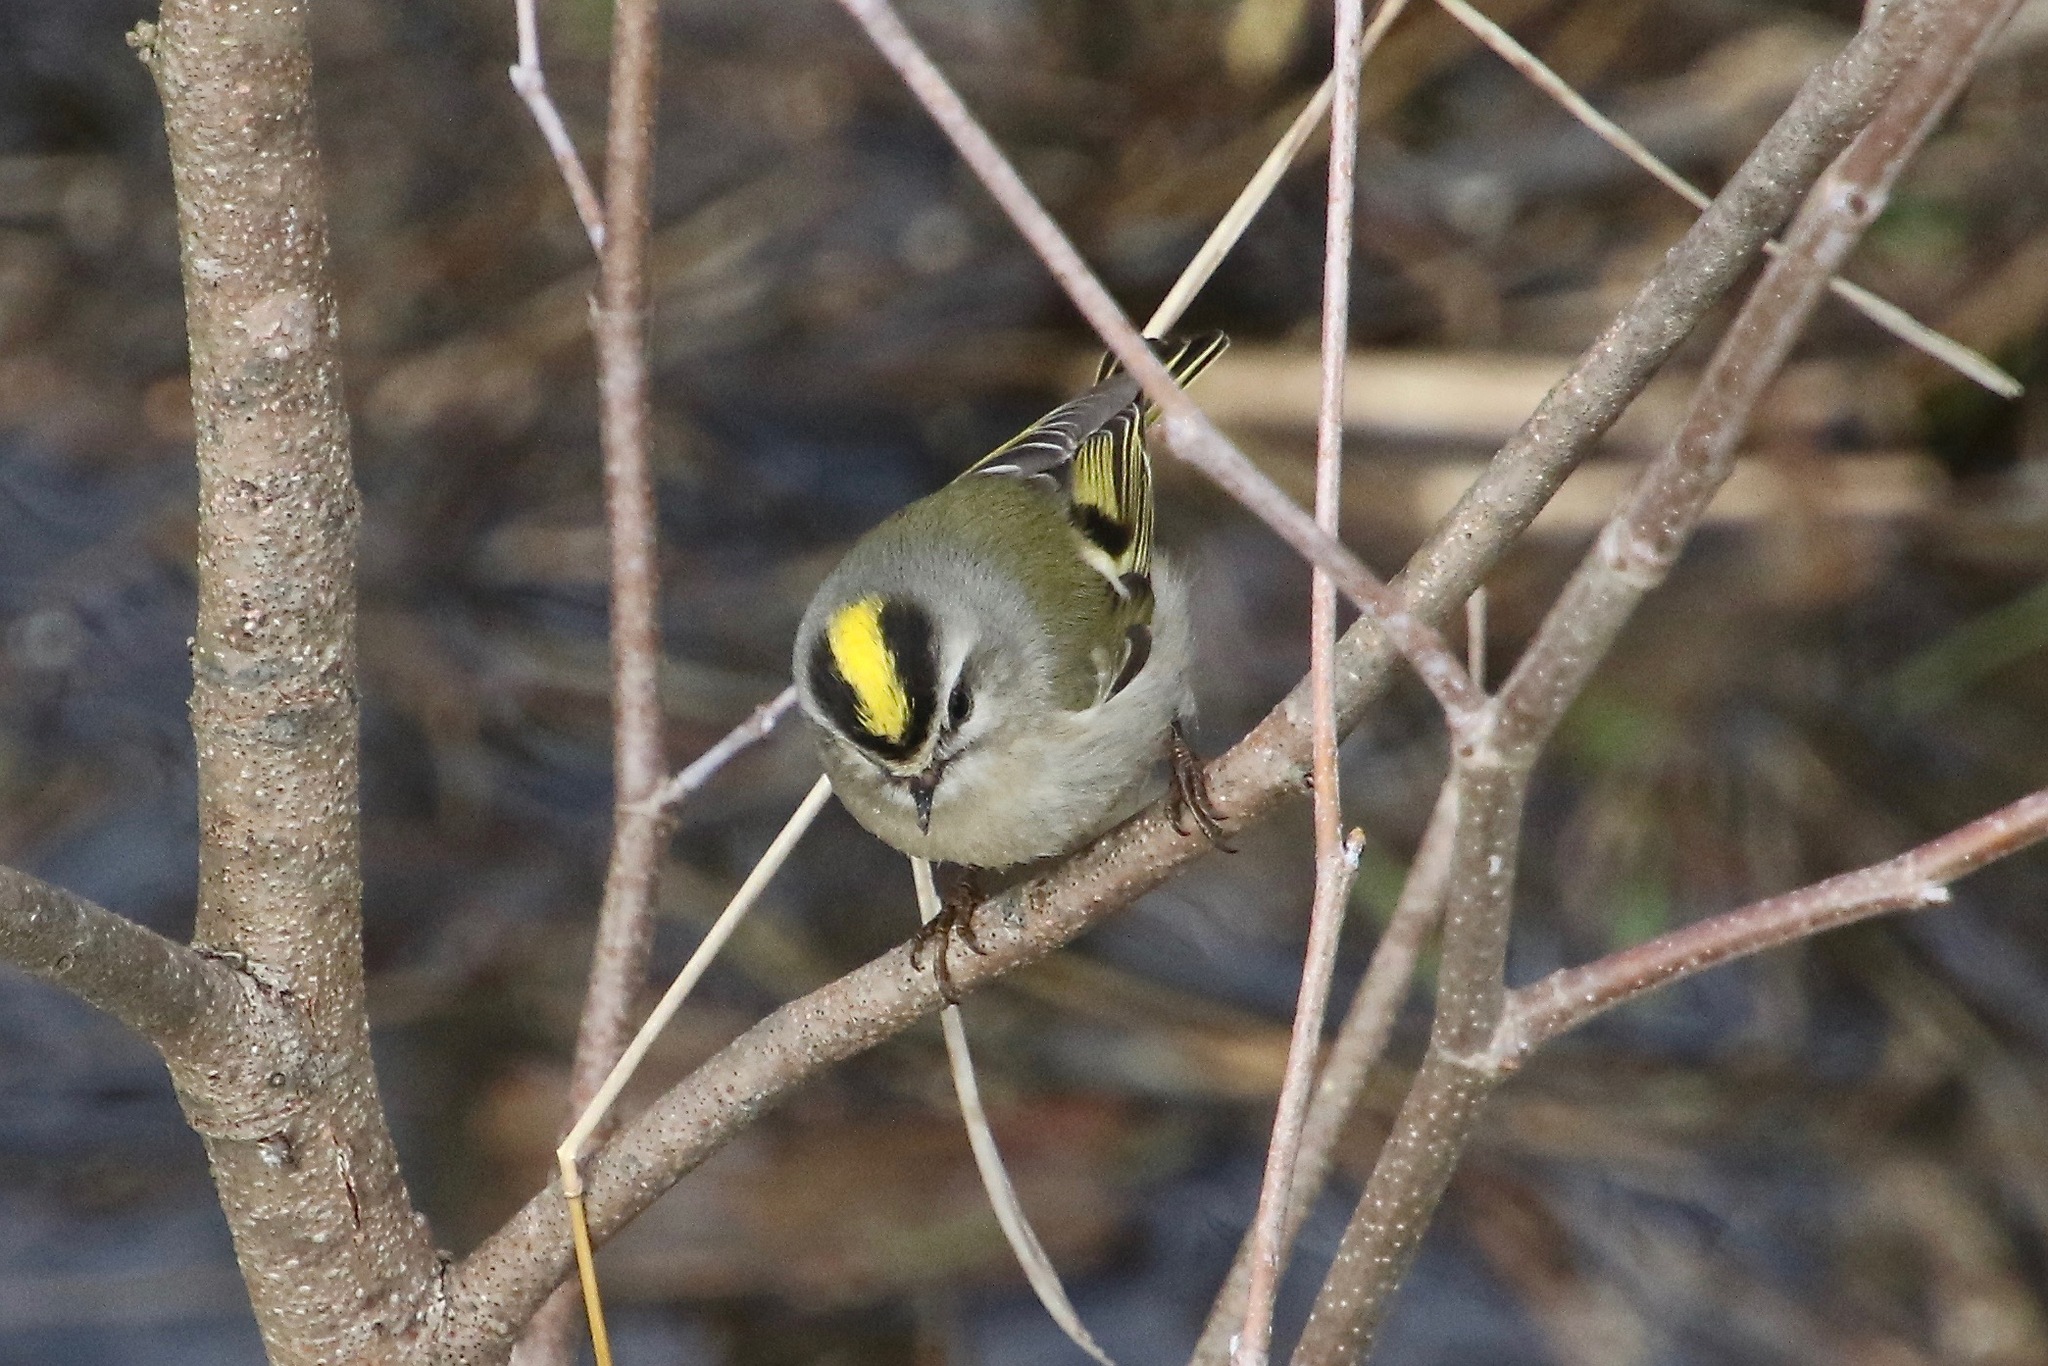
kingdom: Animalia
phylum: Chordata
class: Aves
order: Passeriformes
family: Regulidae
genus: Regulus
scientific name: Regulus satrapa
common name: Golden-crowned kinglet
